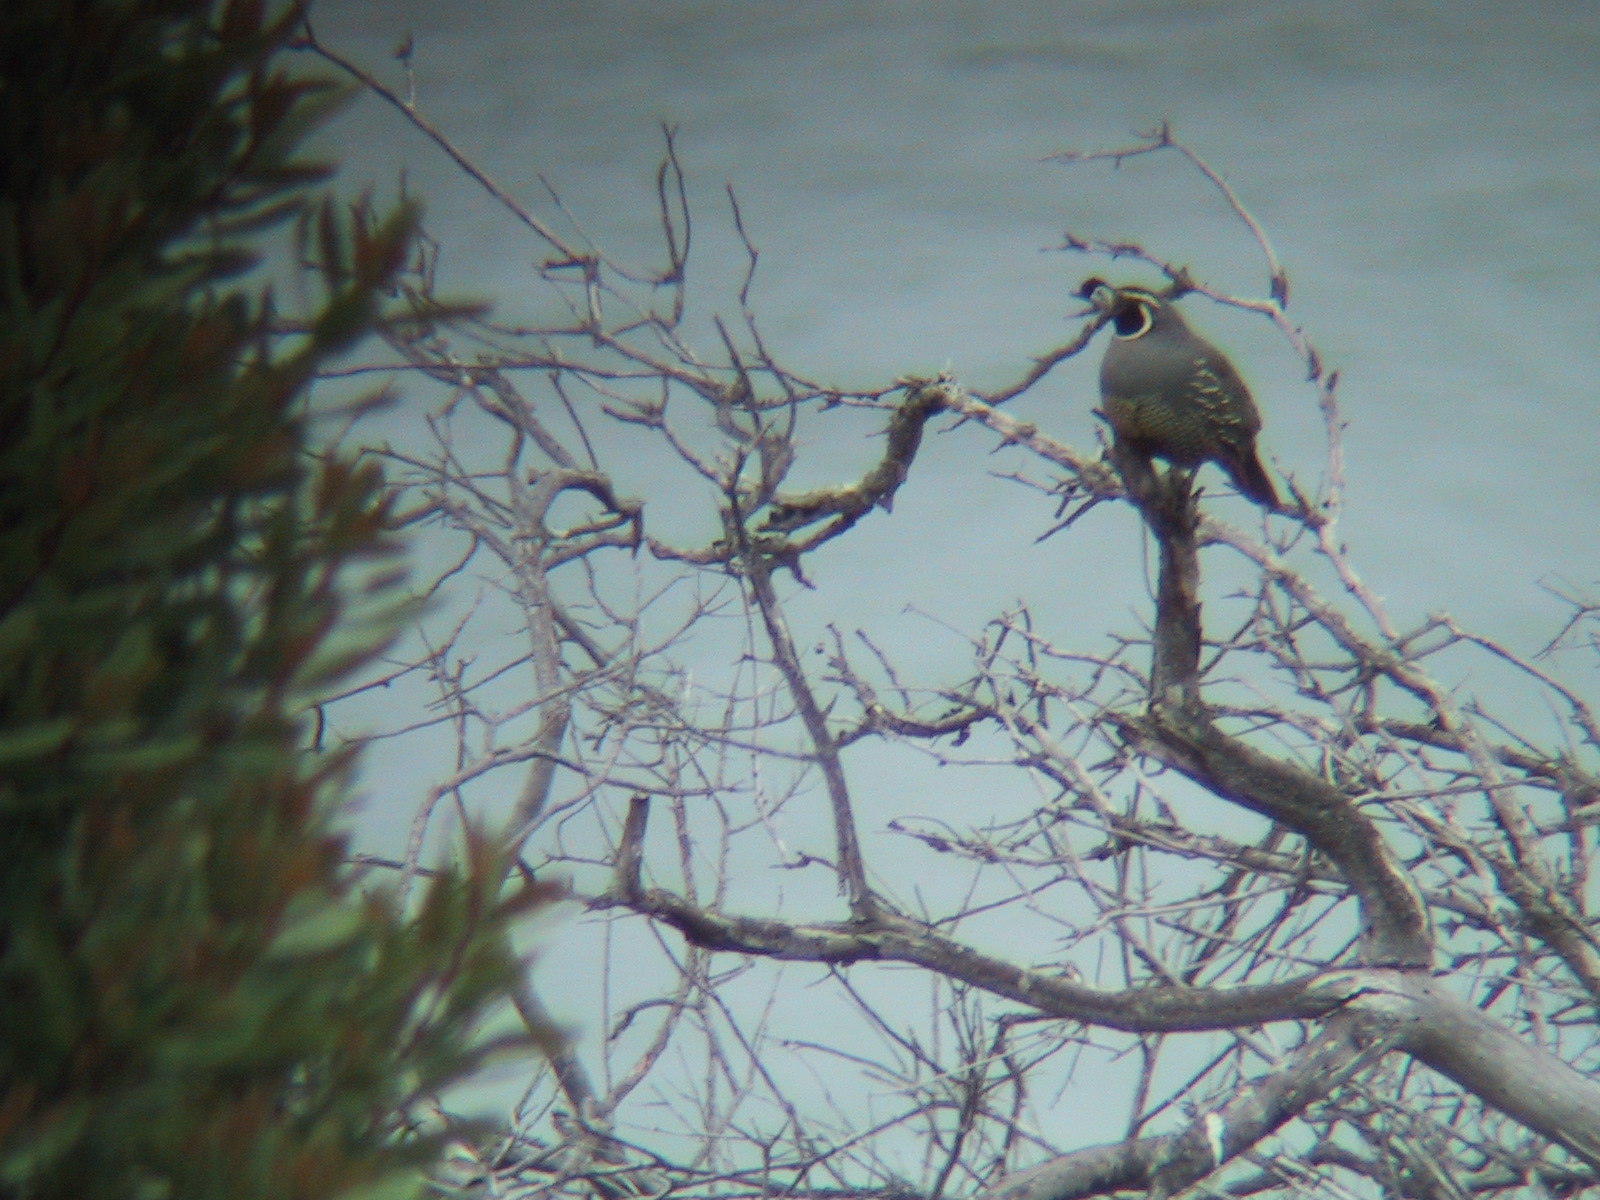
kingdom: Animalia
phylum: Chordata
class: Aves
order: Galliformes
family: Odontophoridae
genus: Callipepla
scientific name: Callipepla californica
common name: California quail
